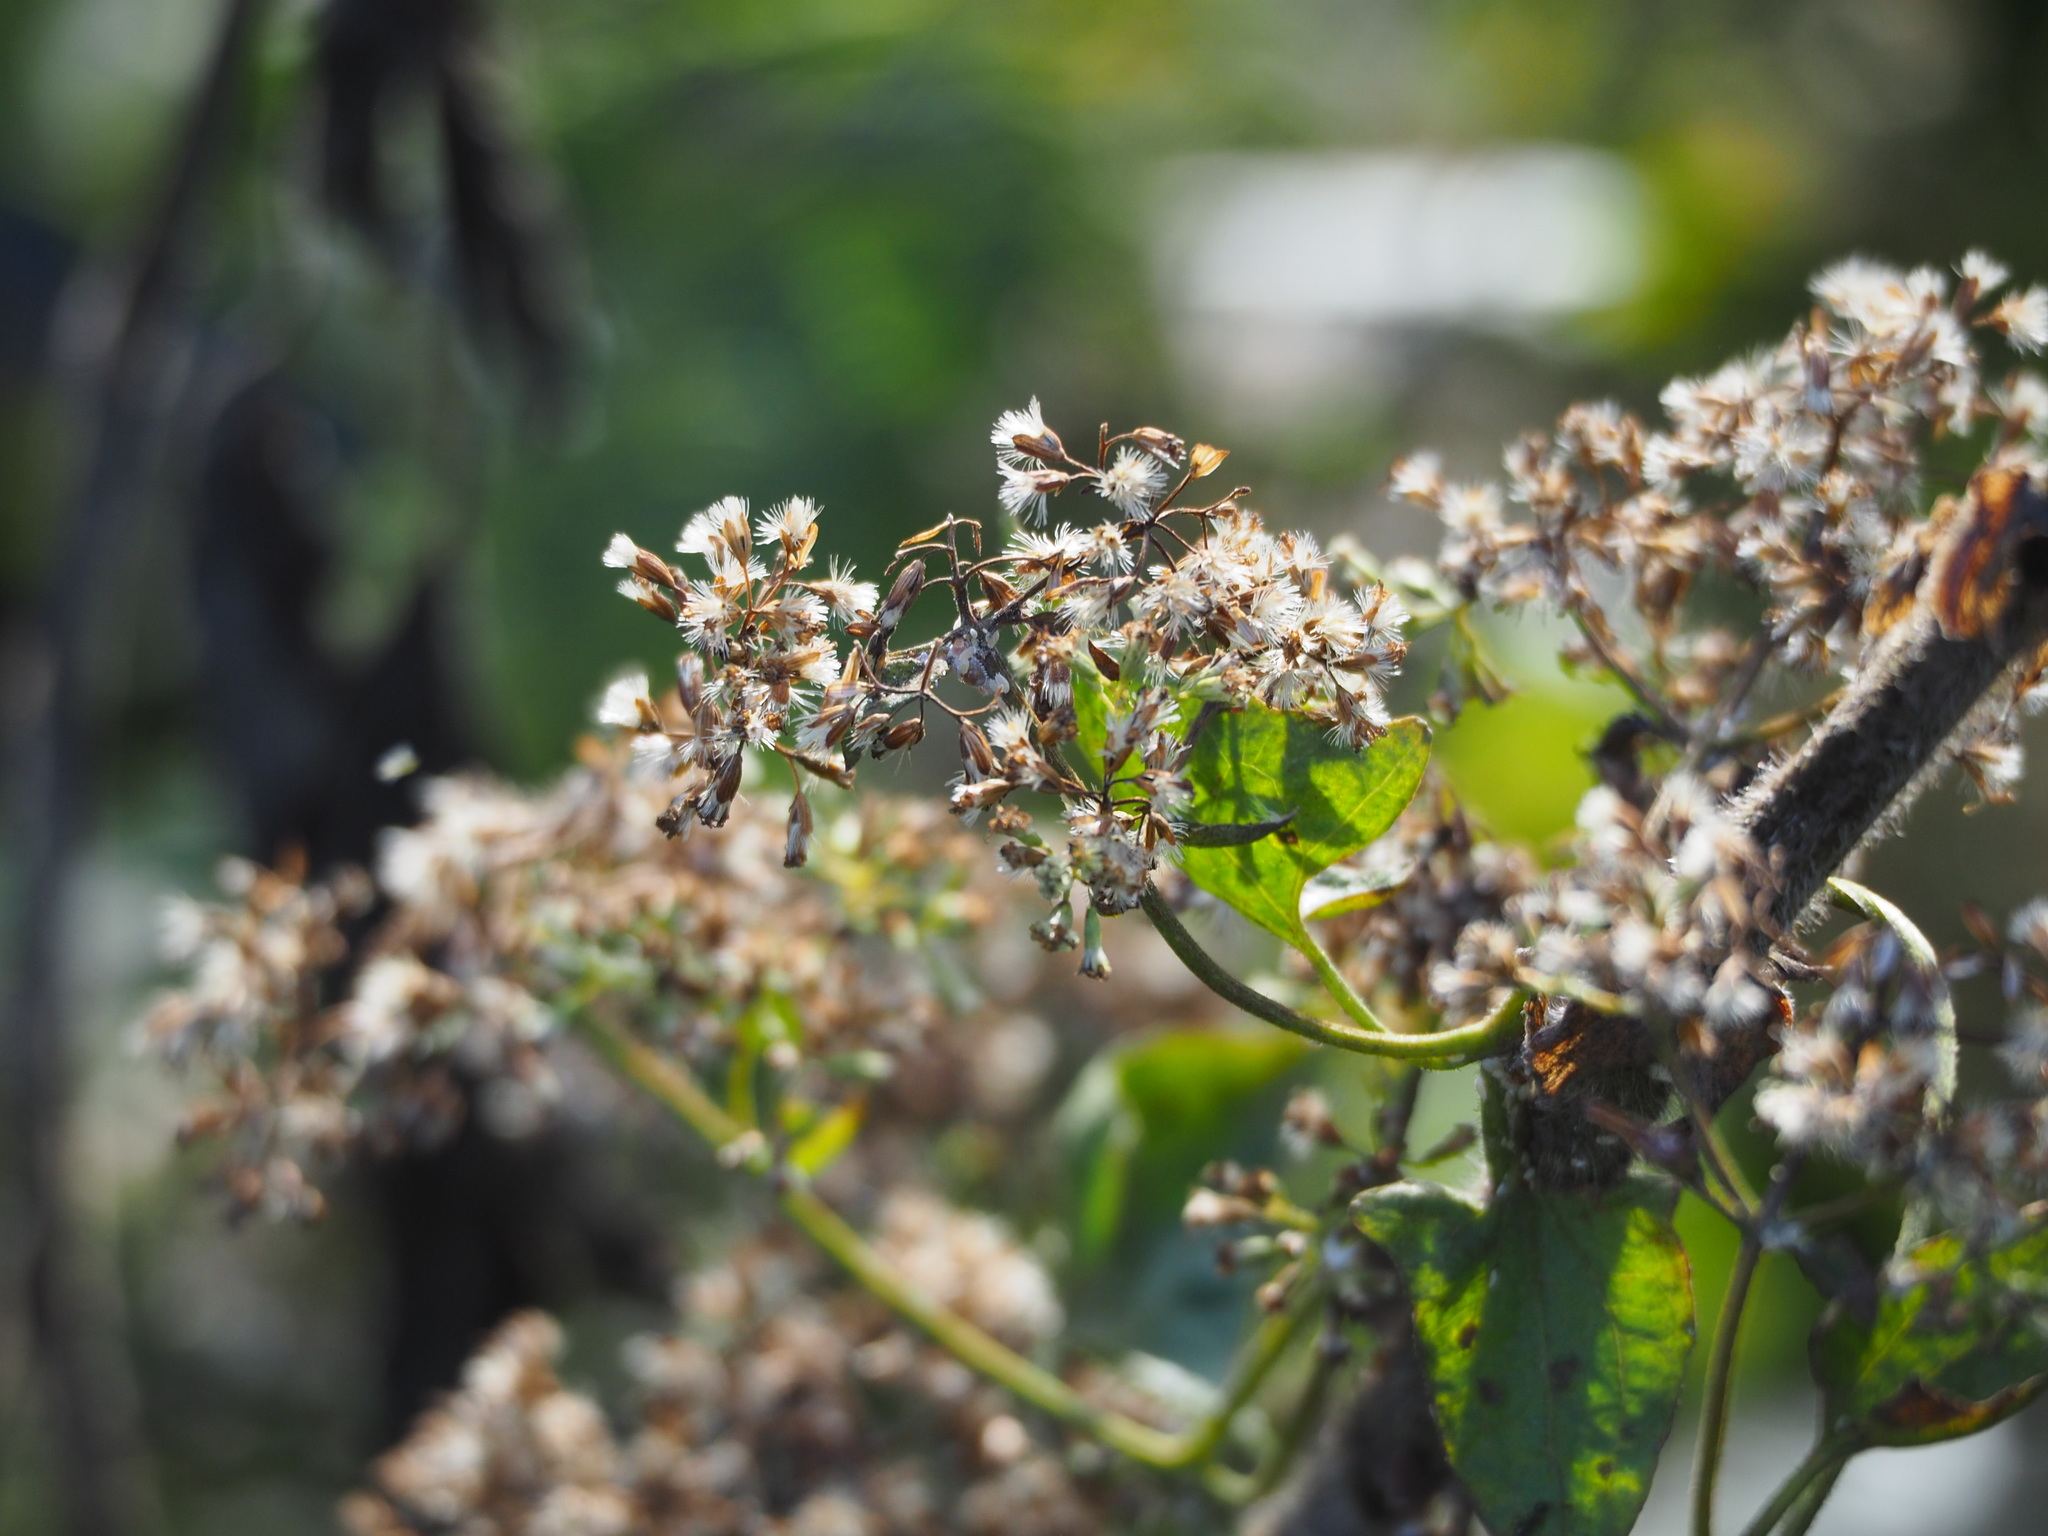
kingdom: Plantae
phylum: Tracheophyta
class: Magnoliopsida
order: Asterales
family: Asteraceae
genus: Mikania
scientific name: Mikania micrantha
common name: Mile-a-minute
